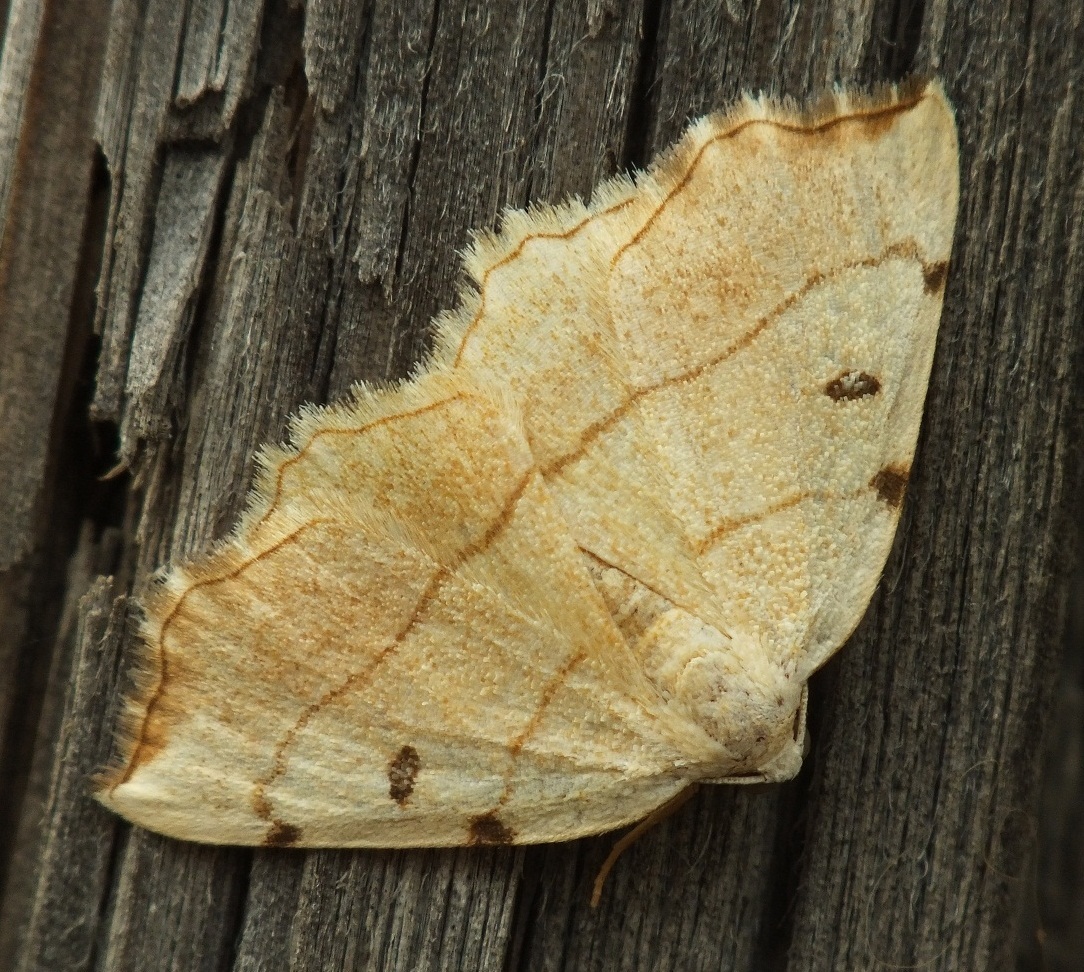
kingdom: Animalia
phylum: Arthropoda
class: Insecta
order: Lepidoptera
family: Geometridae
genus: Eilicrinia
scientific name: Eilicrinia trinotata
